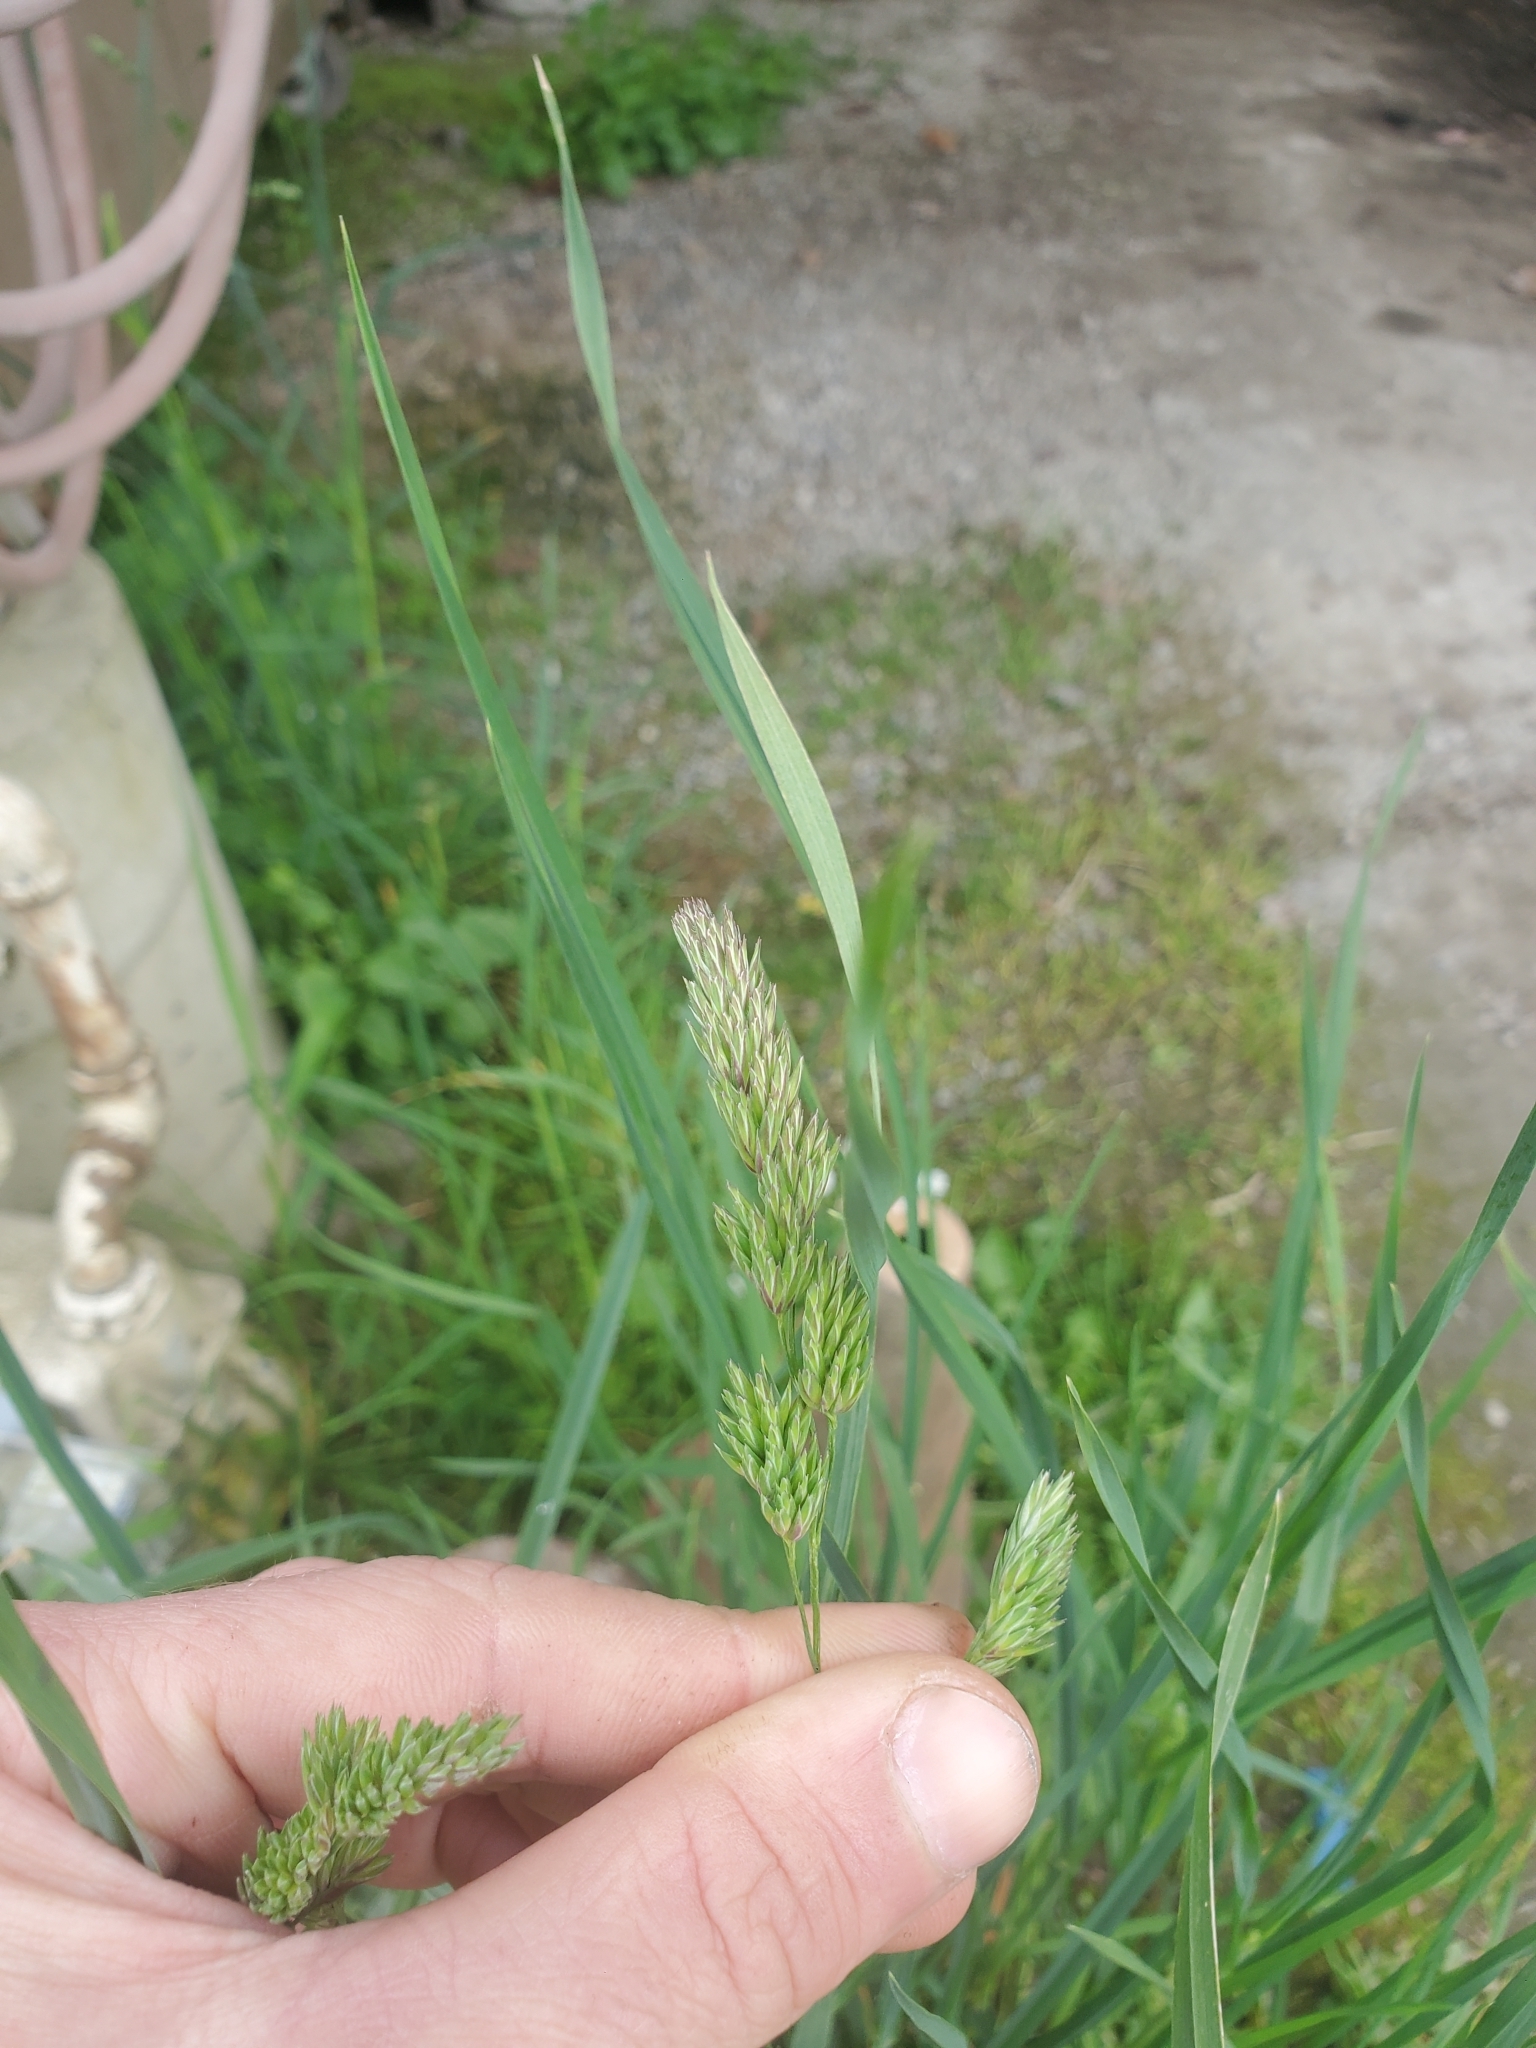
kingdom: Plantae
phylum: Tracheophyta
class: Liliopsida
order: Poales
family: Poaceae
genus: Dactylis
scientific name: Dactylis glomerata
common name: Orchardgrass
